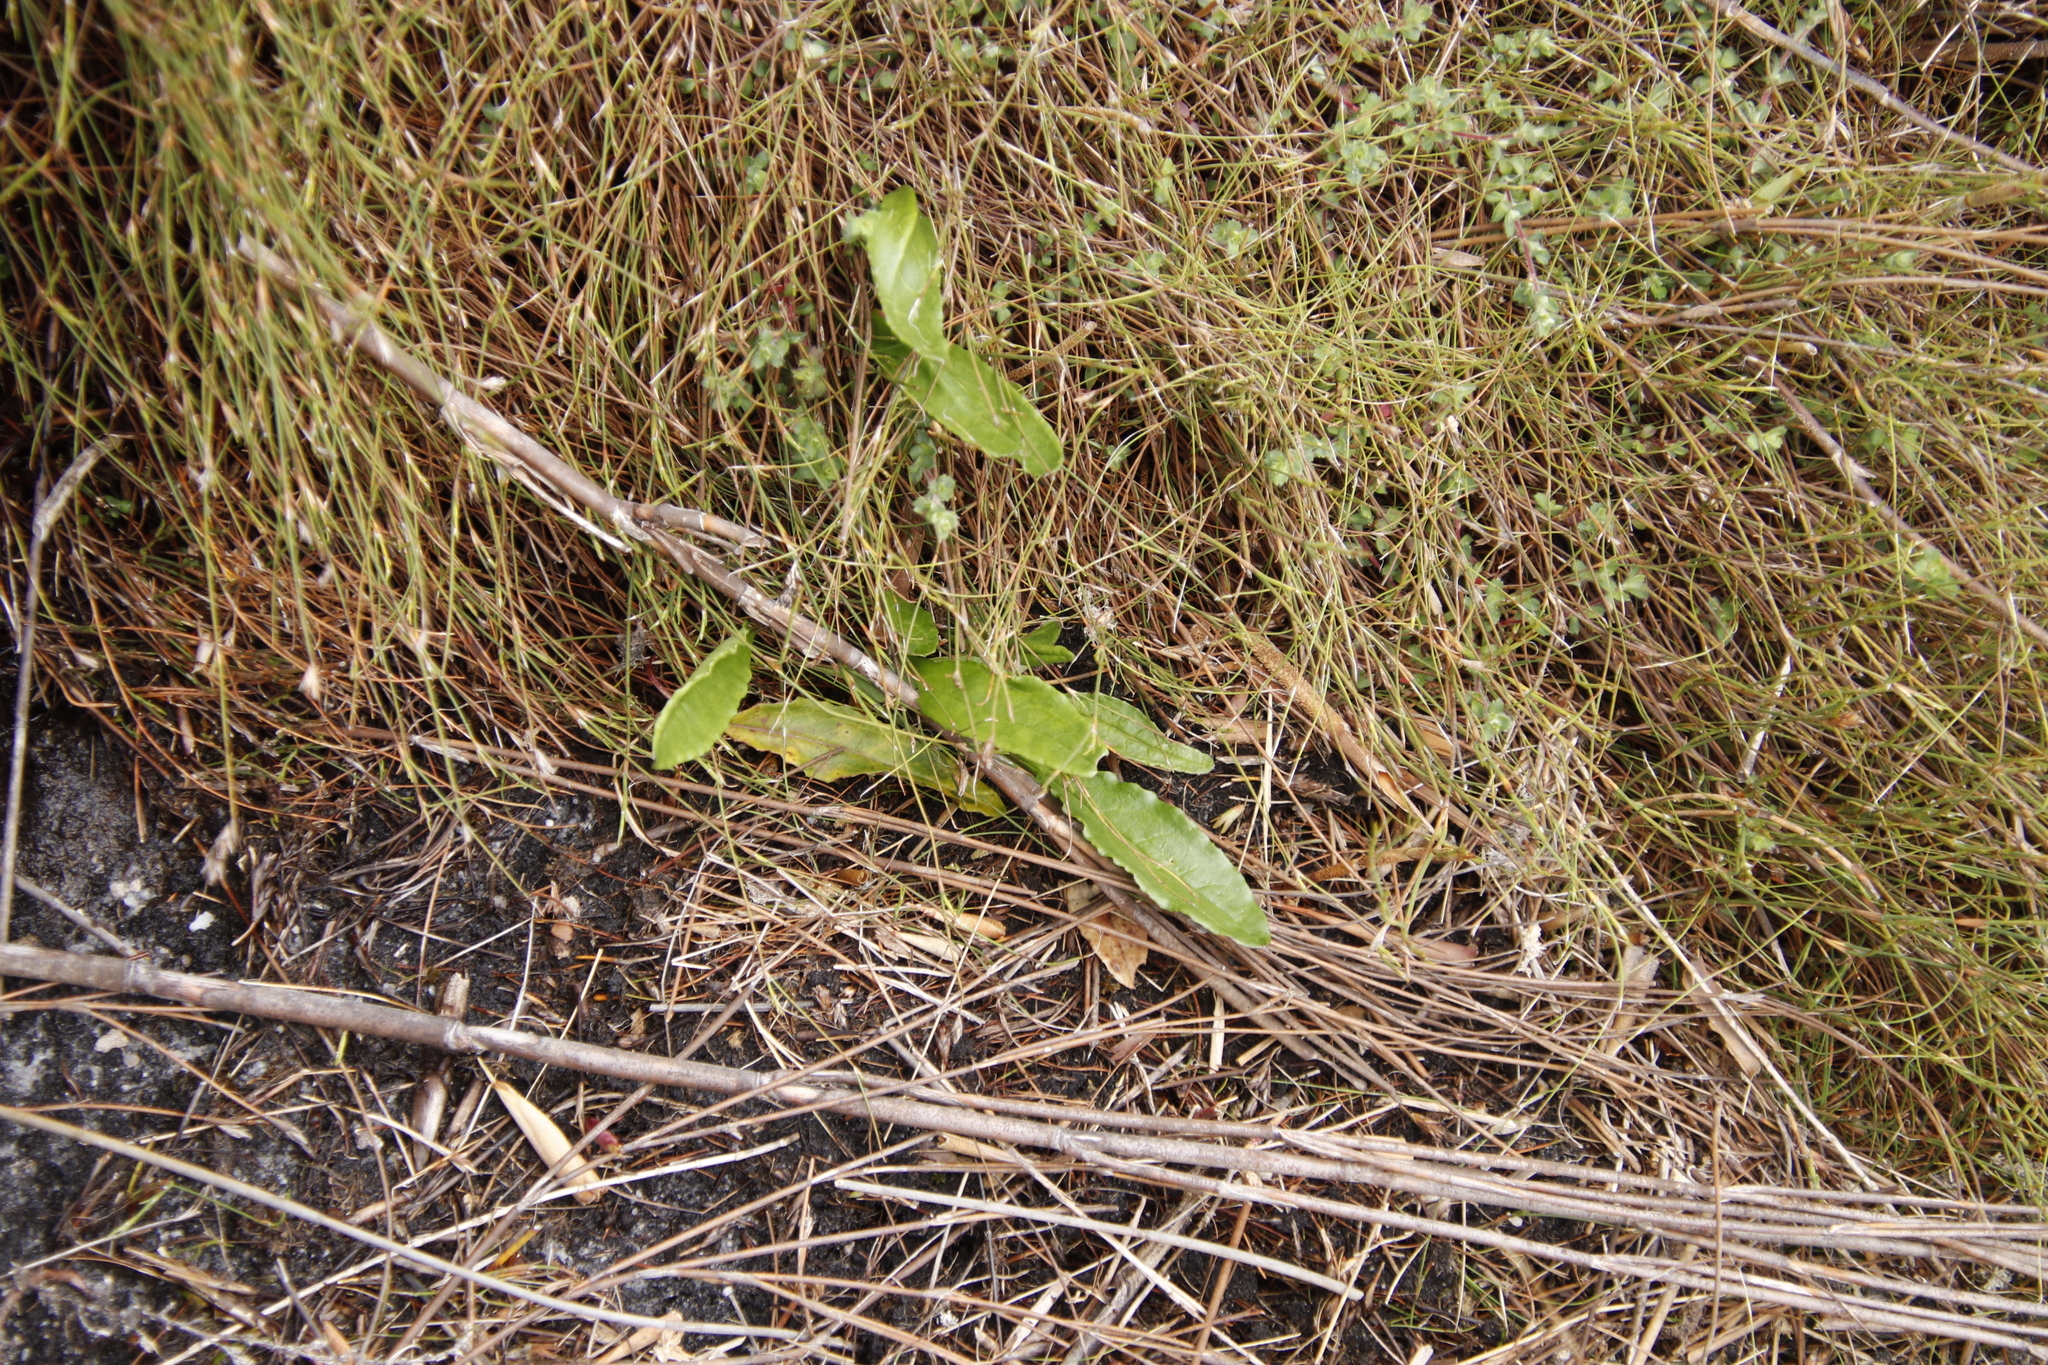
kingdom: Plantae
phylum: Tracheophyta
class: Magnoliopsida
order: Asterales
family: Asteraceae
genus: Senecio
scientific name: Senecio crispus
